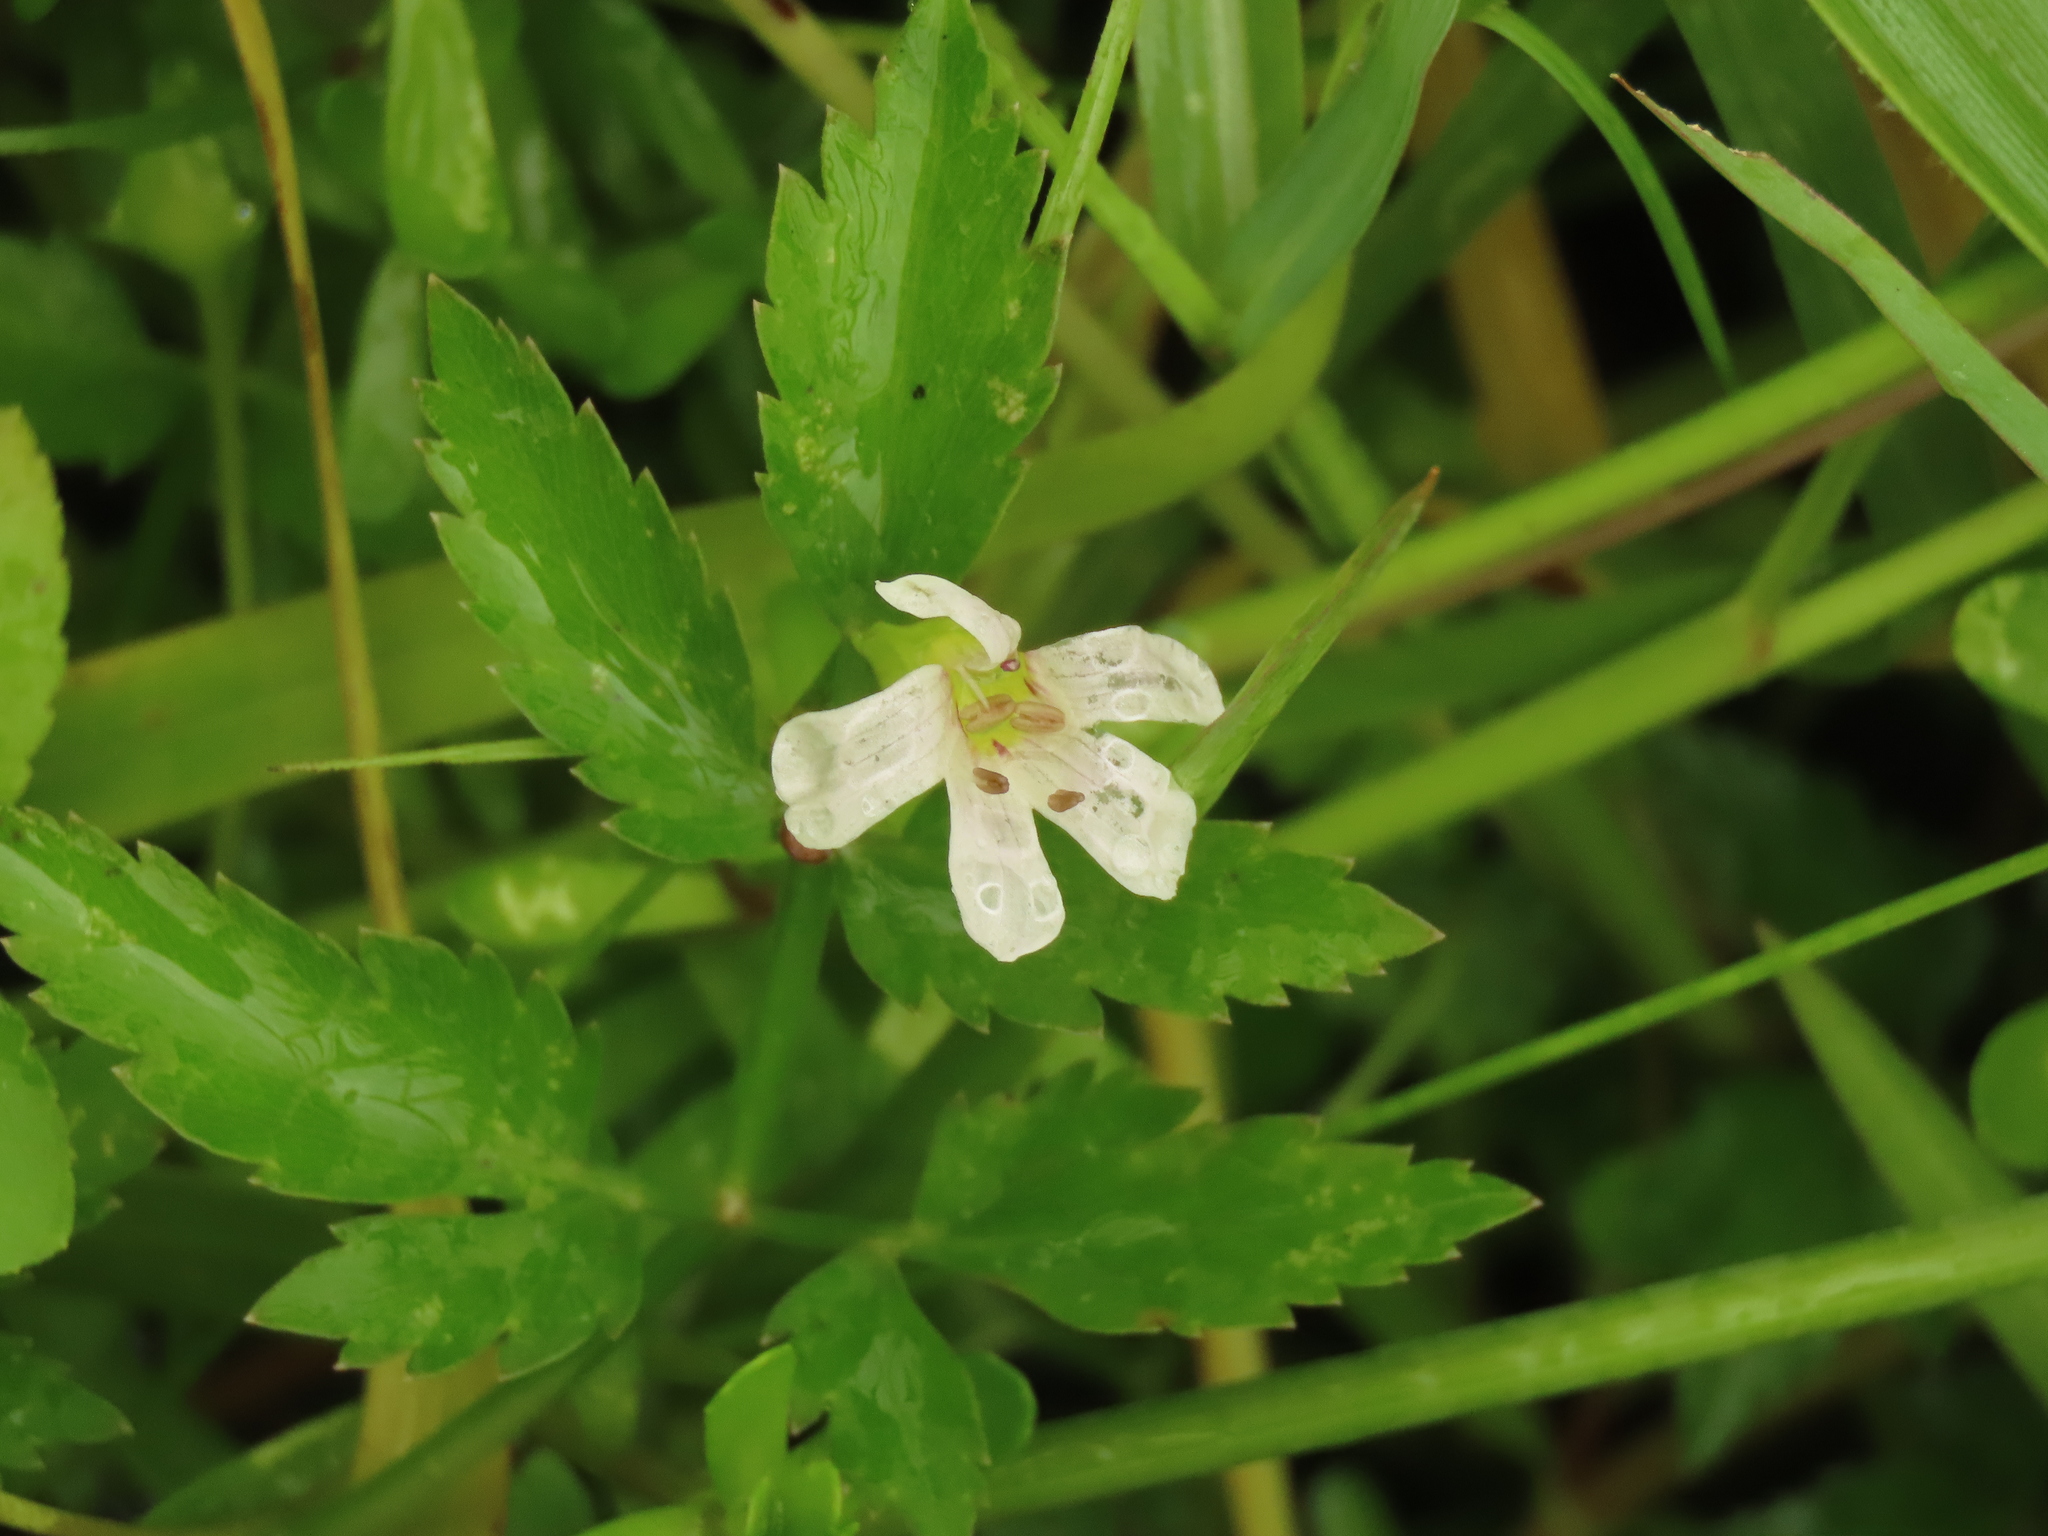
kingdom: Plantae
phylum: Tracheophyta
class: Magnoliopsida
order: Lamiales
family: Plantaginaceae
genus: Bacopa
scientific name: Bacopa monnieri
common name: Indian-pennywort
